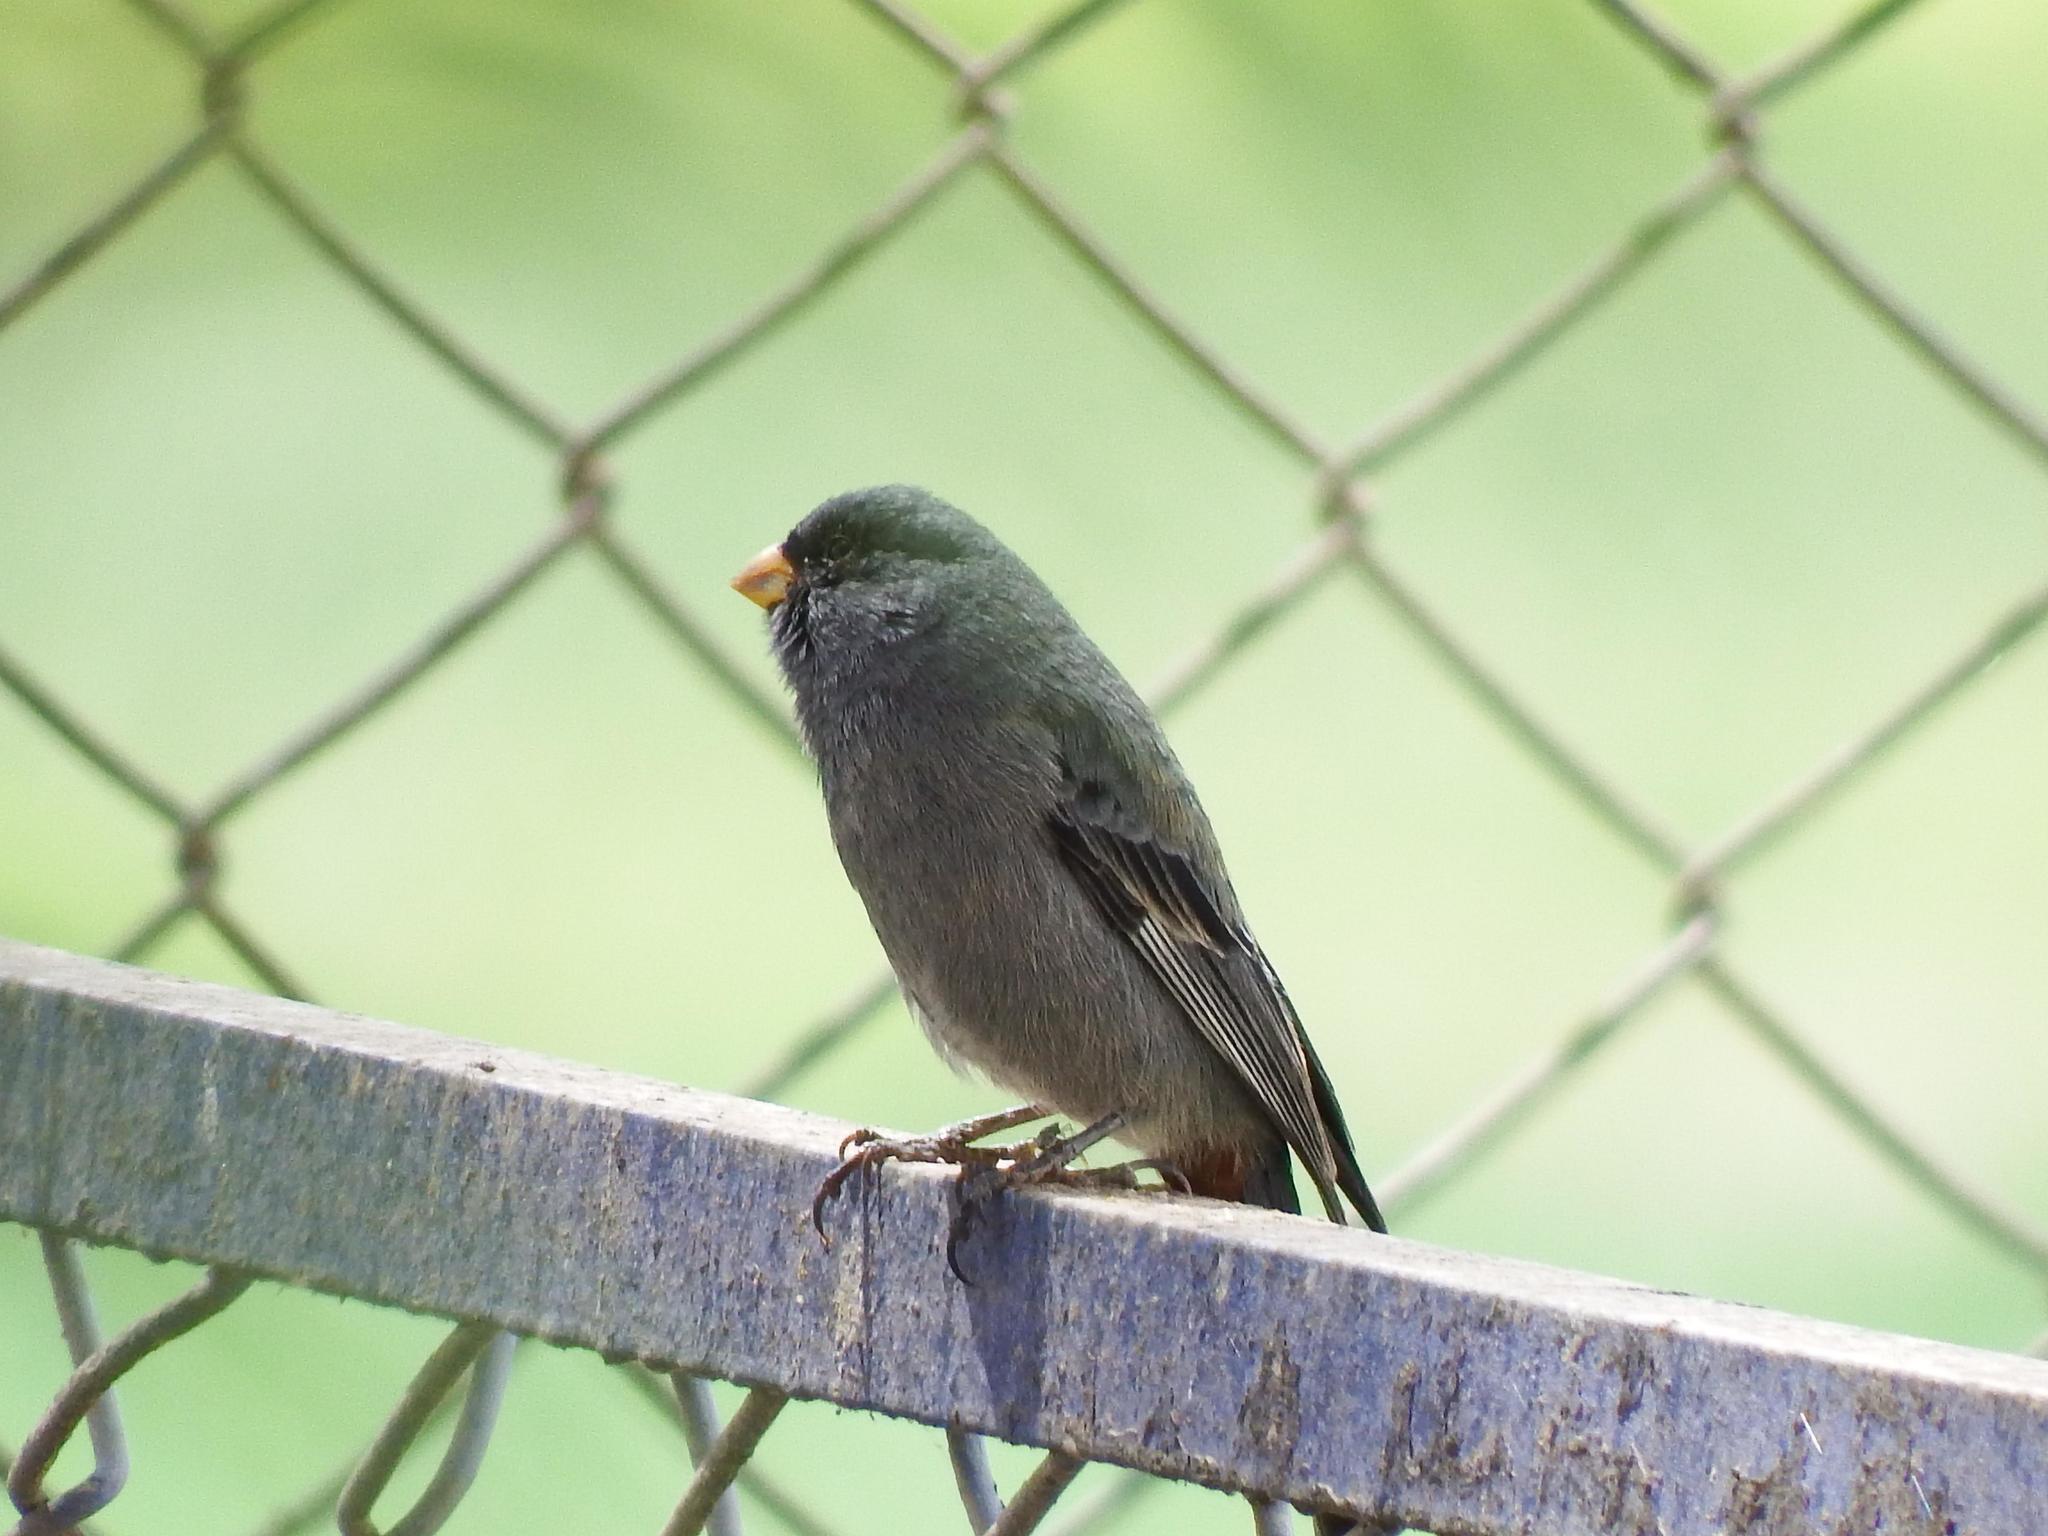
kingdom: Animalia
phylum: Chordata
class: Aves
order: Passeriformes
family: Thraupidae
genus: Catamenia
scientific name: Catamenia inornata
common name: Plain-colored seedeater
